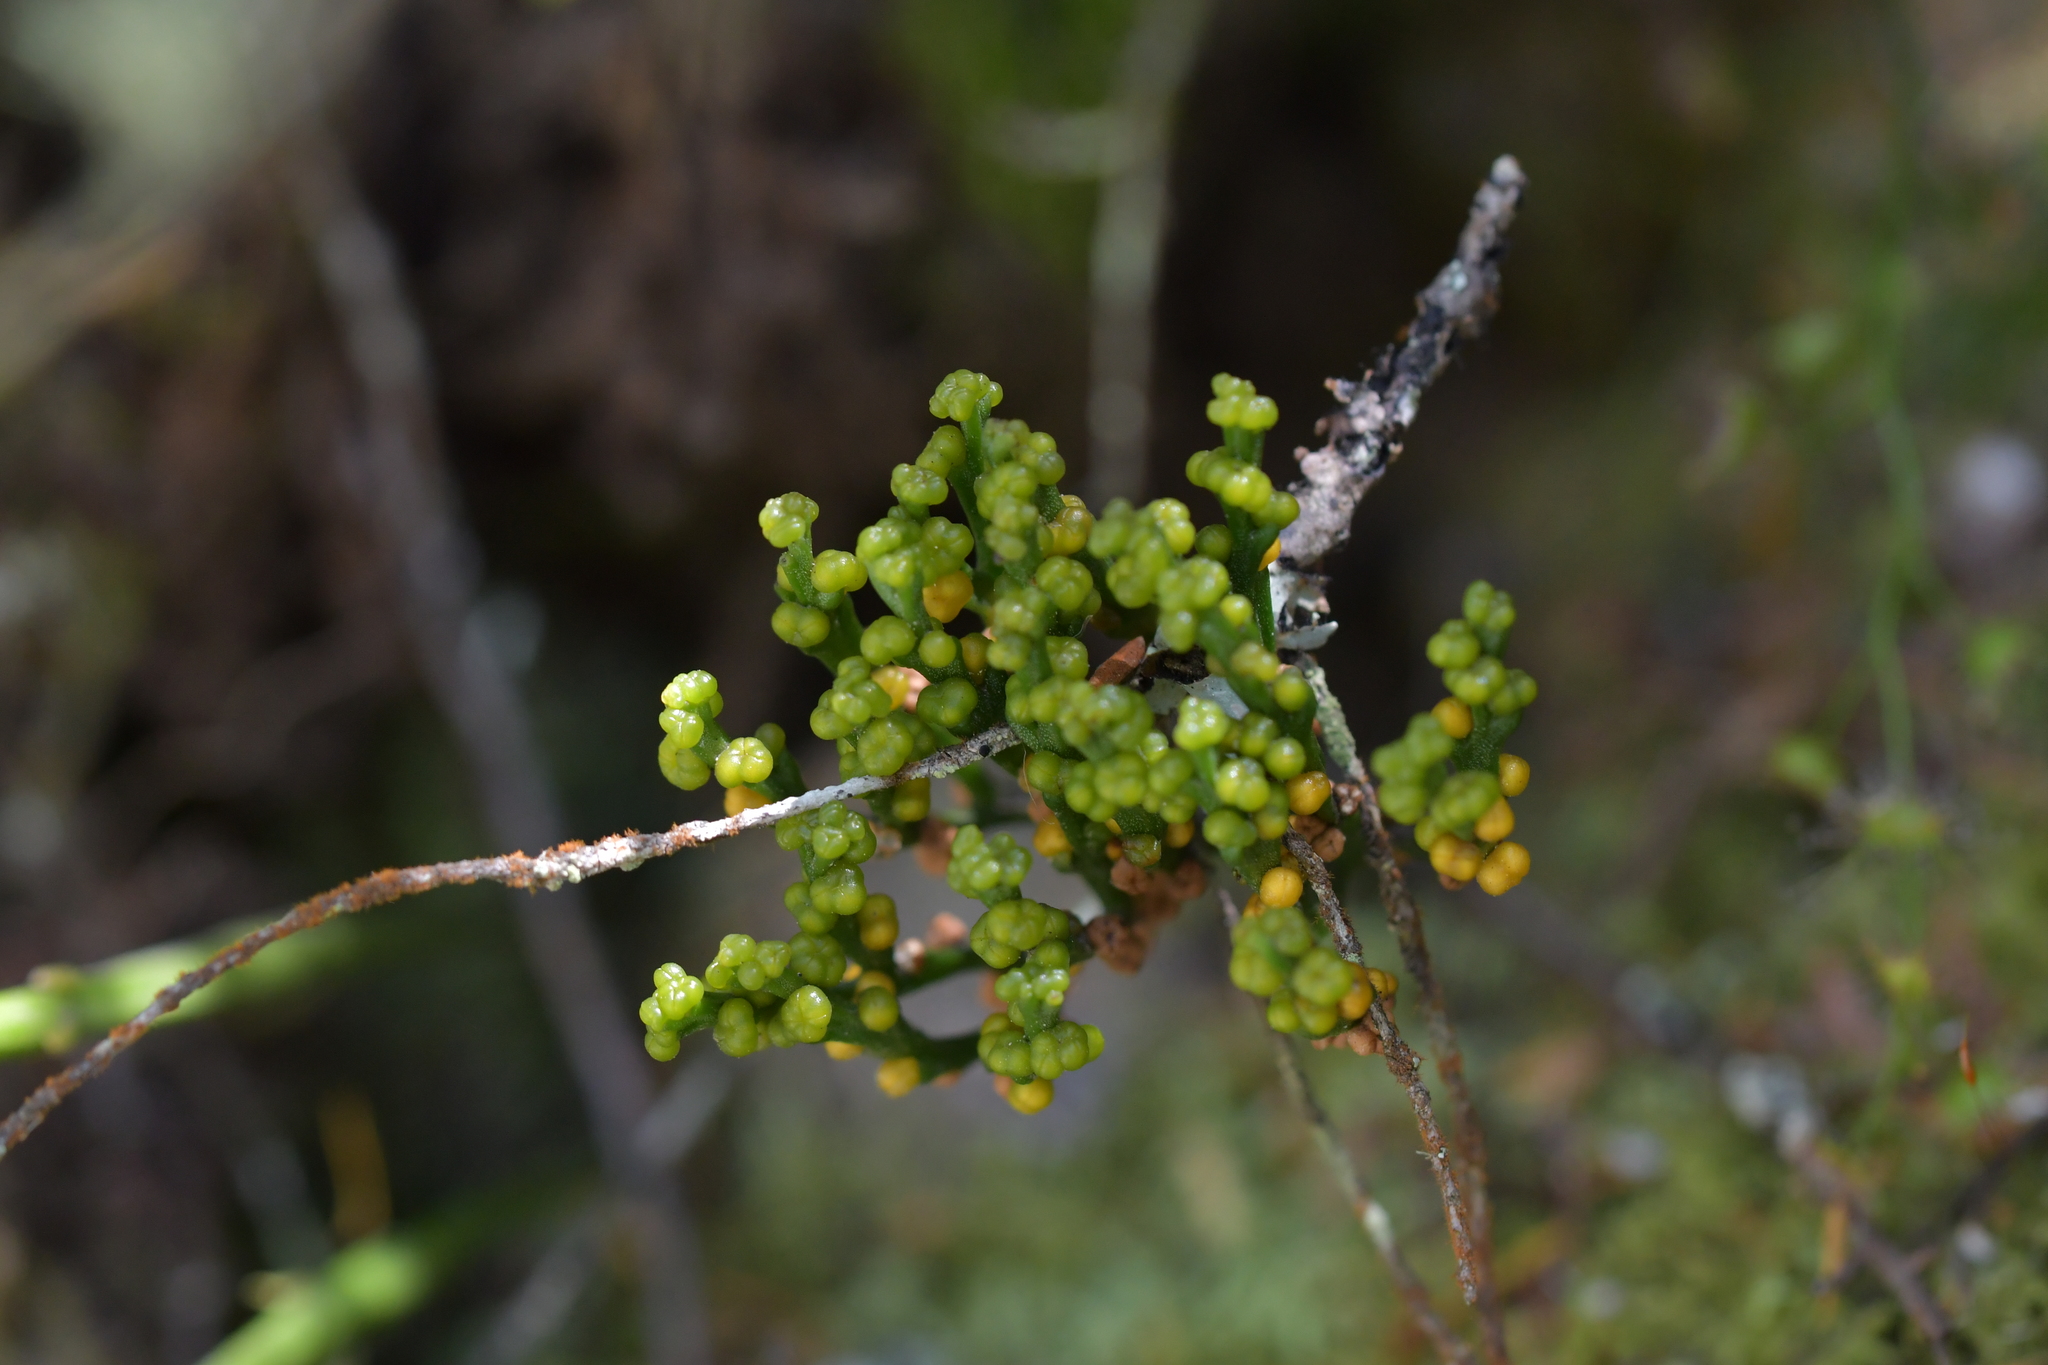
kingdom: Plantae
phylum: Tracheophyta
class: Polypodiopsida
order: Psilotales
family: Psilotaceae
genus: Psilotum
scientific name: Psilotum nudum
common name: Skeleton fork fern
